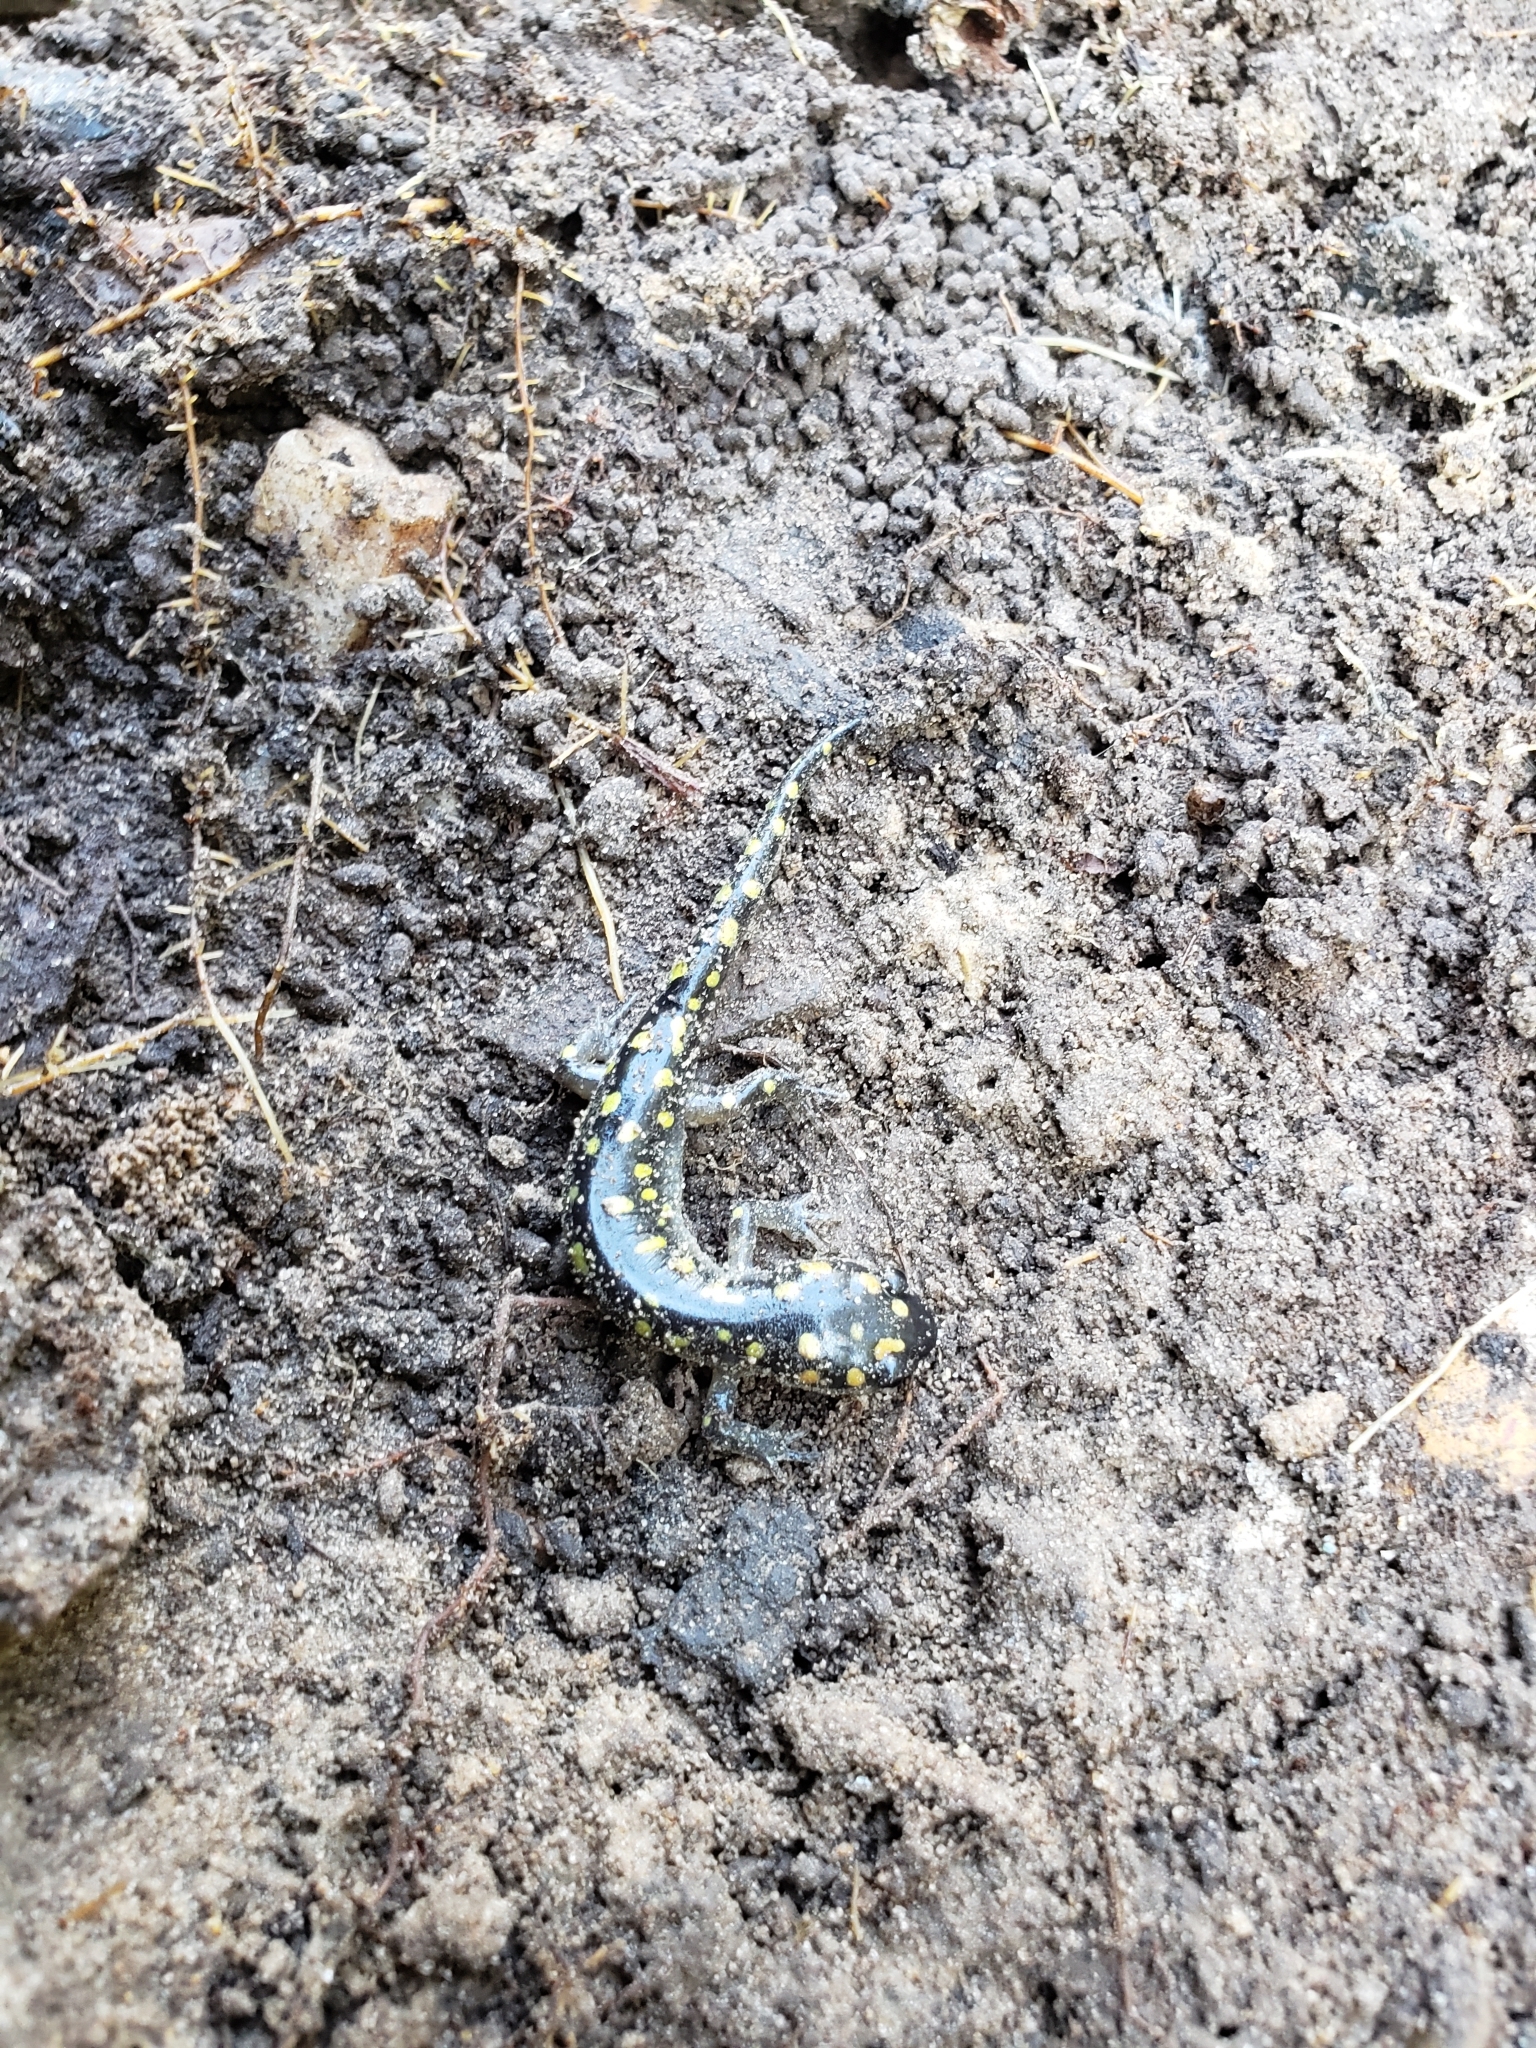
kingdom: Animalia
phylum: Chordata
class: Amphibia
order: Caudata
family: Ambystomatidae
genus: Ambystoma
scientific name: Ambystoma maculatum
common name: Spotted salamander
